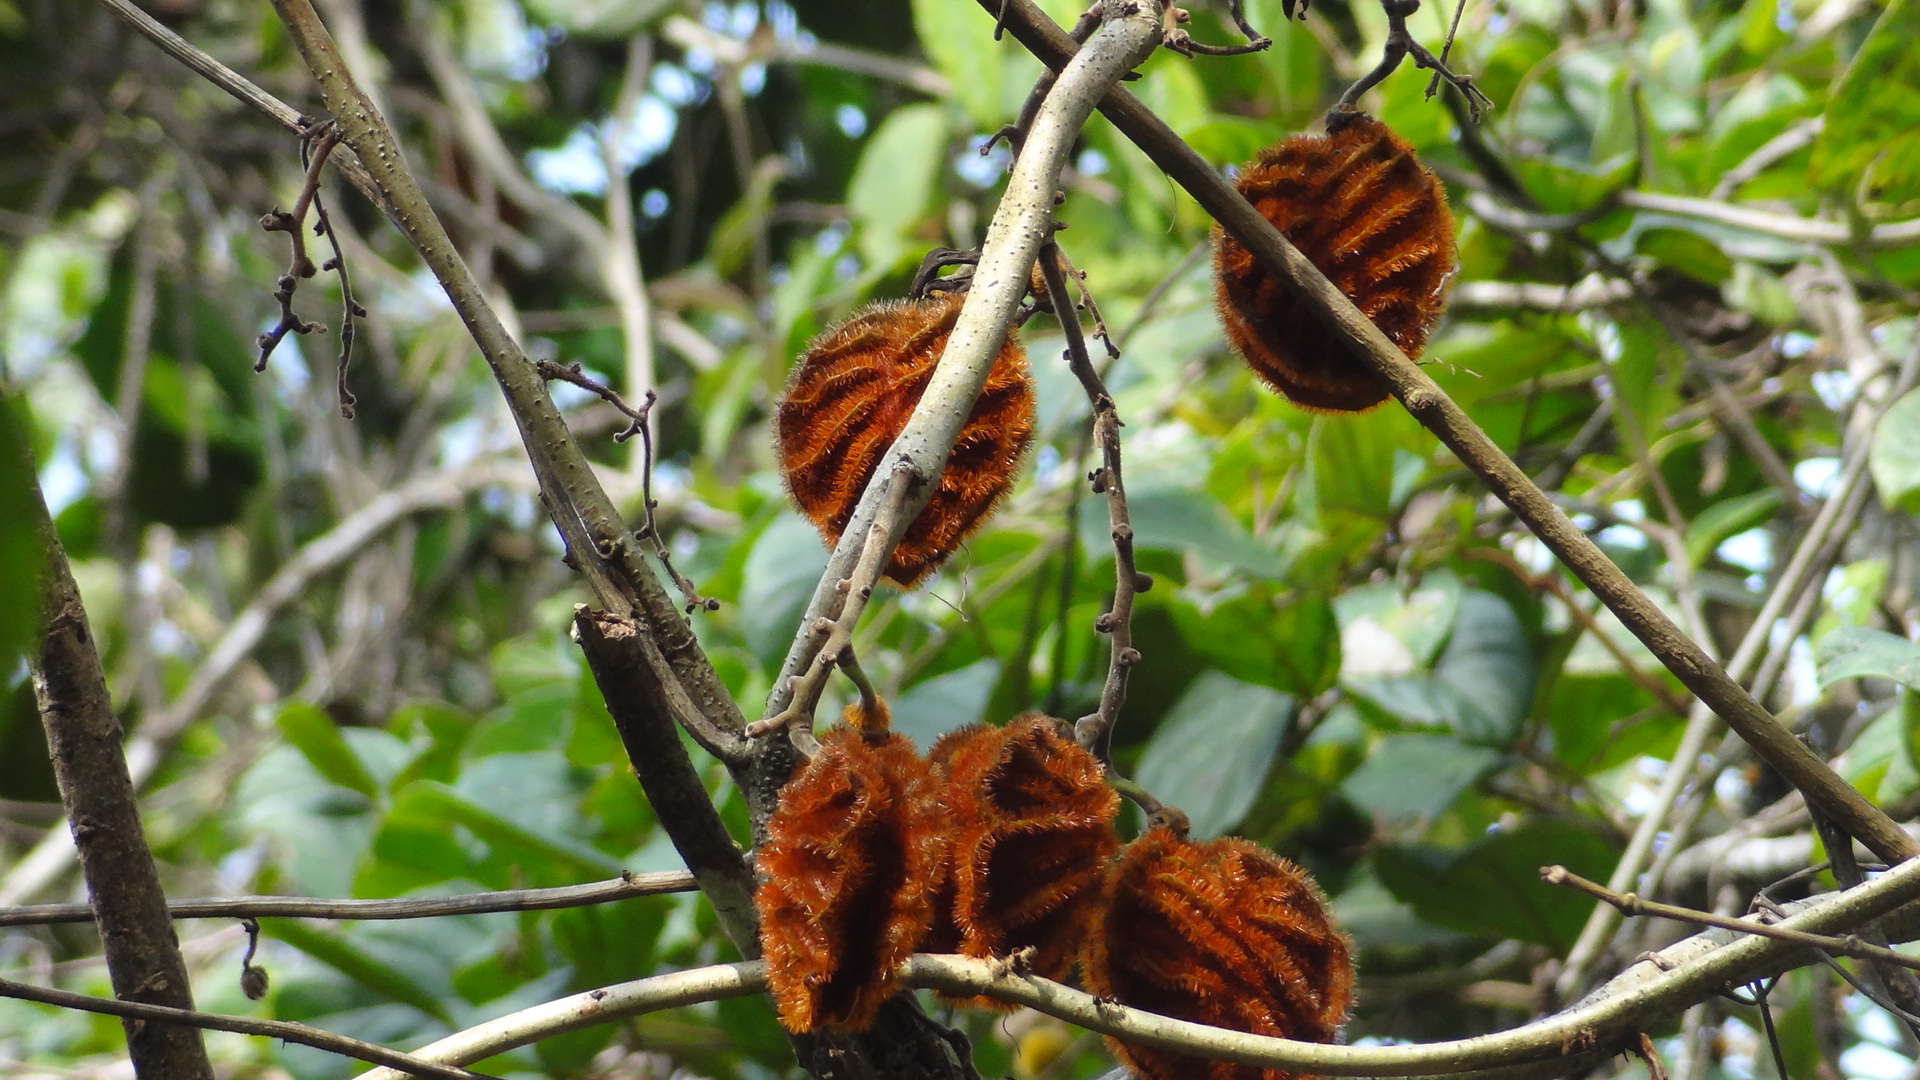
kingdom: Plantae
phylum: Tracheophyta
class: Magnoliopsida
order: Fabales
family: Fabaceae
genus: Mucuna
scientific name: Mucuna monosperma
